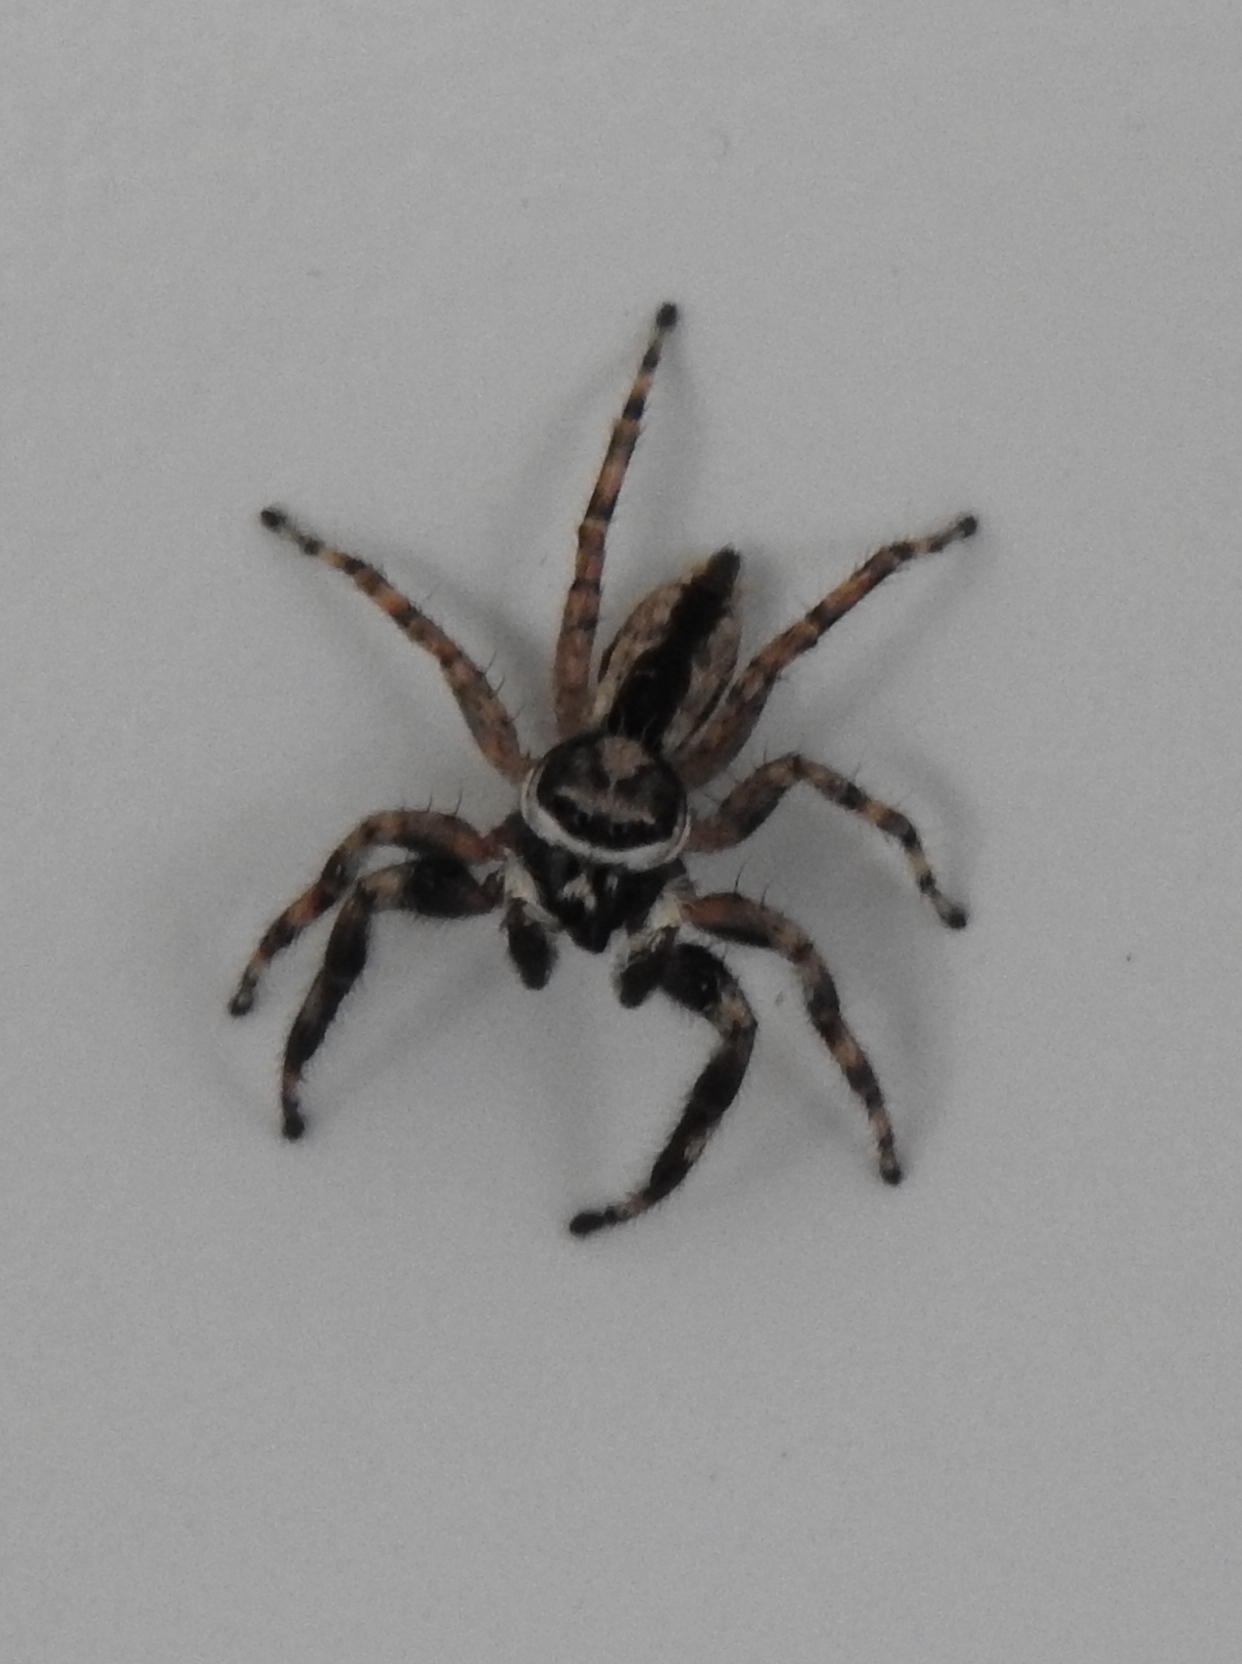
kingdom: Animalia
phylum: Arthropoda
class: Arachnida
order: Araneae
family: Salticidae
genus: Menemerus
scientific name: Menemerus bivittatus
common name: Gray wall jumper
